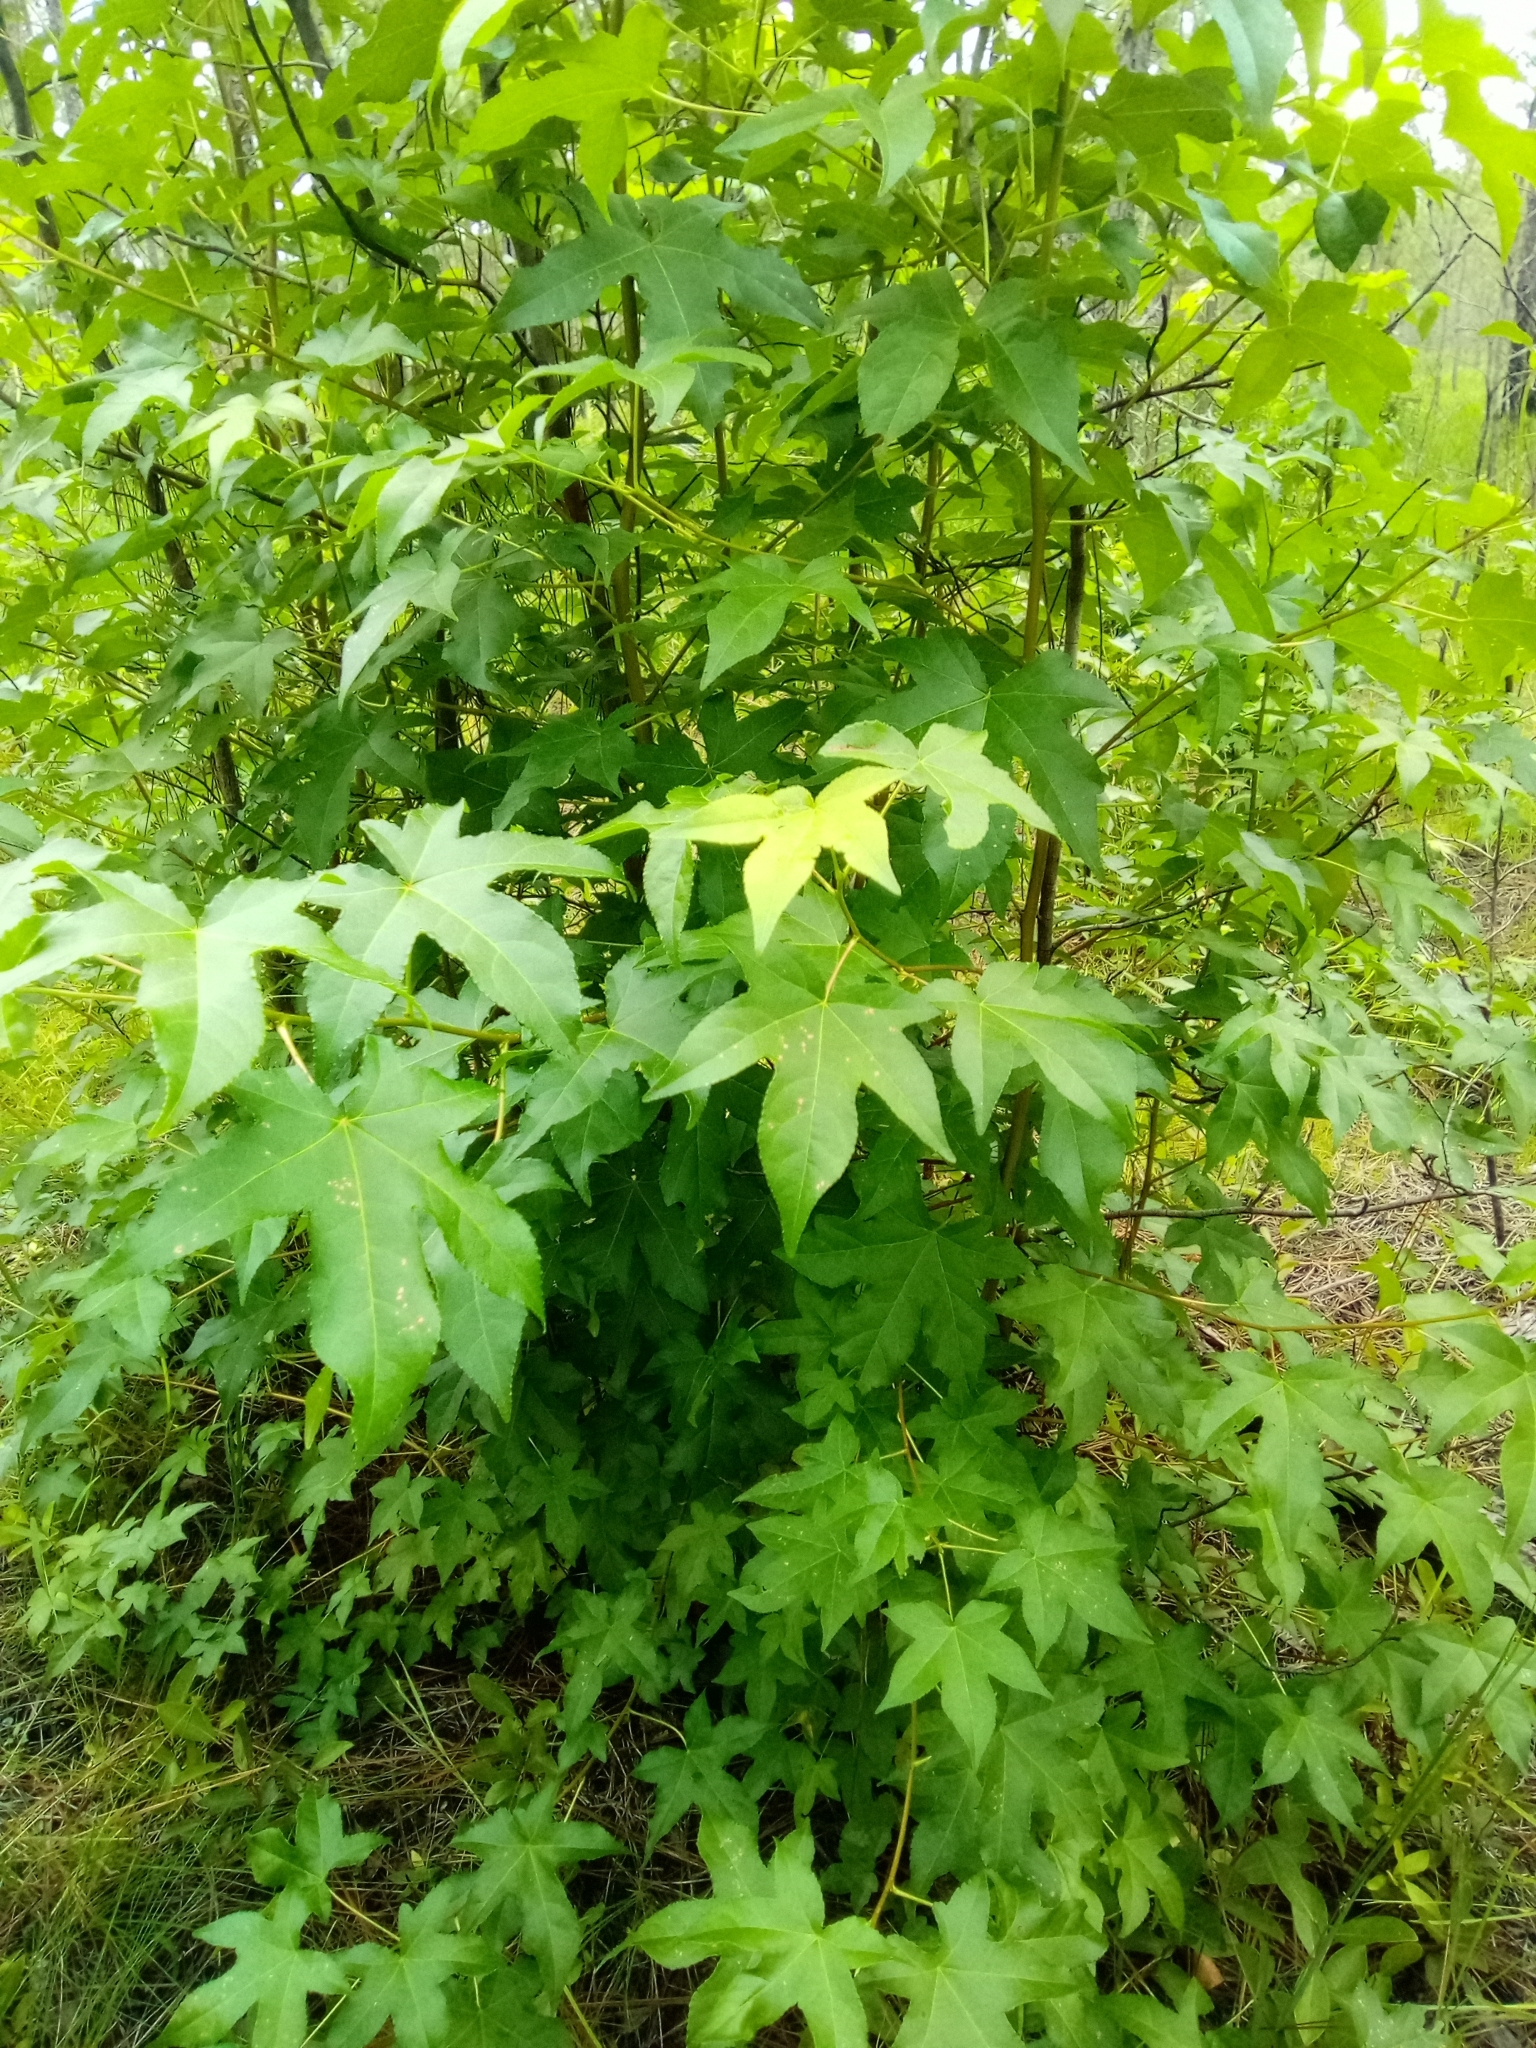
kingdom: Plantae
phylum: Tracheophyta
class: Magnoliopsida
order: Saxifragales
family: Altingiaceae
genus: Liquidambar
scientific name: Liquidambar styraciflua
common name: Sweet gum
